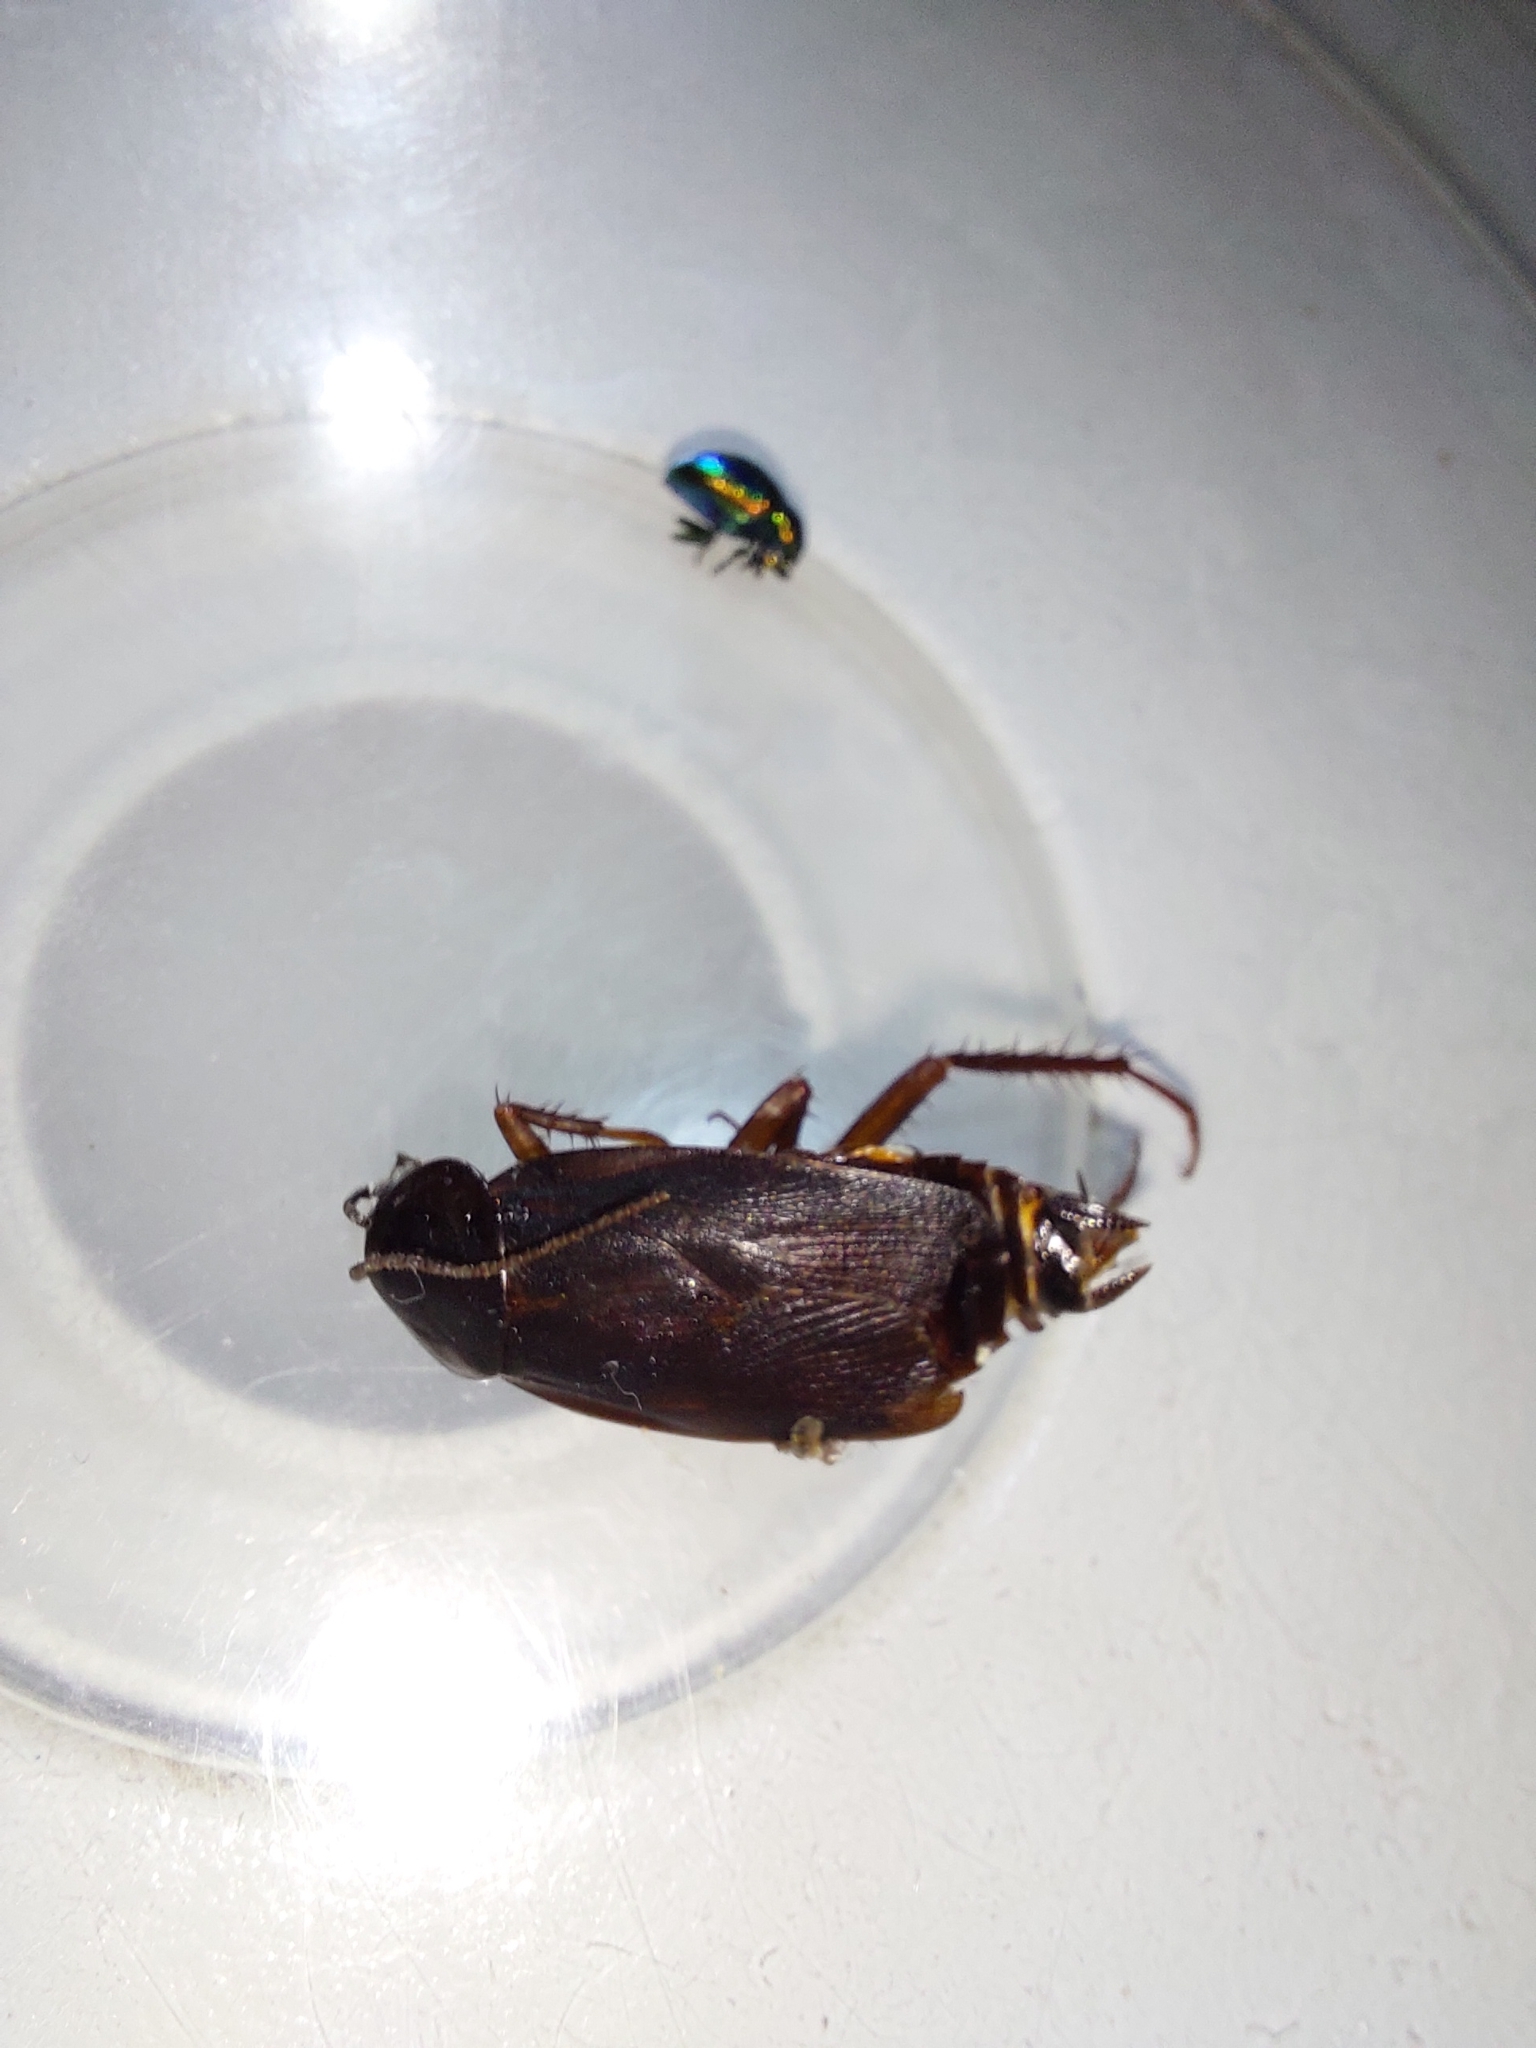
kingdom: Animalia
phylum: Arthropoda
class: Insecta
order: Blattodea
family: Blattidae
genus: Blatta
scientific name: Blatta orientalis
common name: Oriental cockroach
